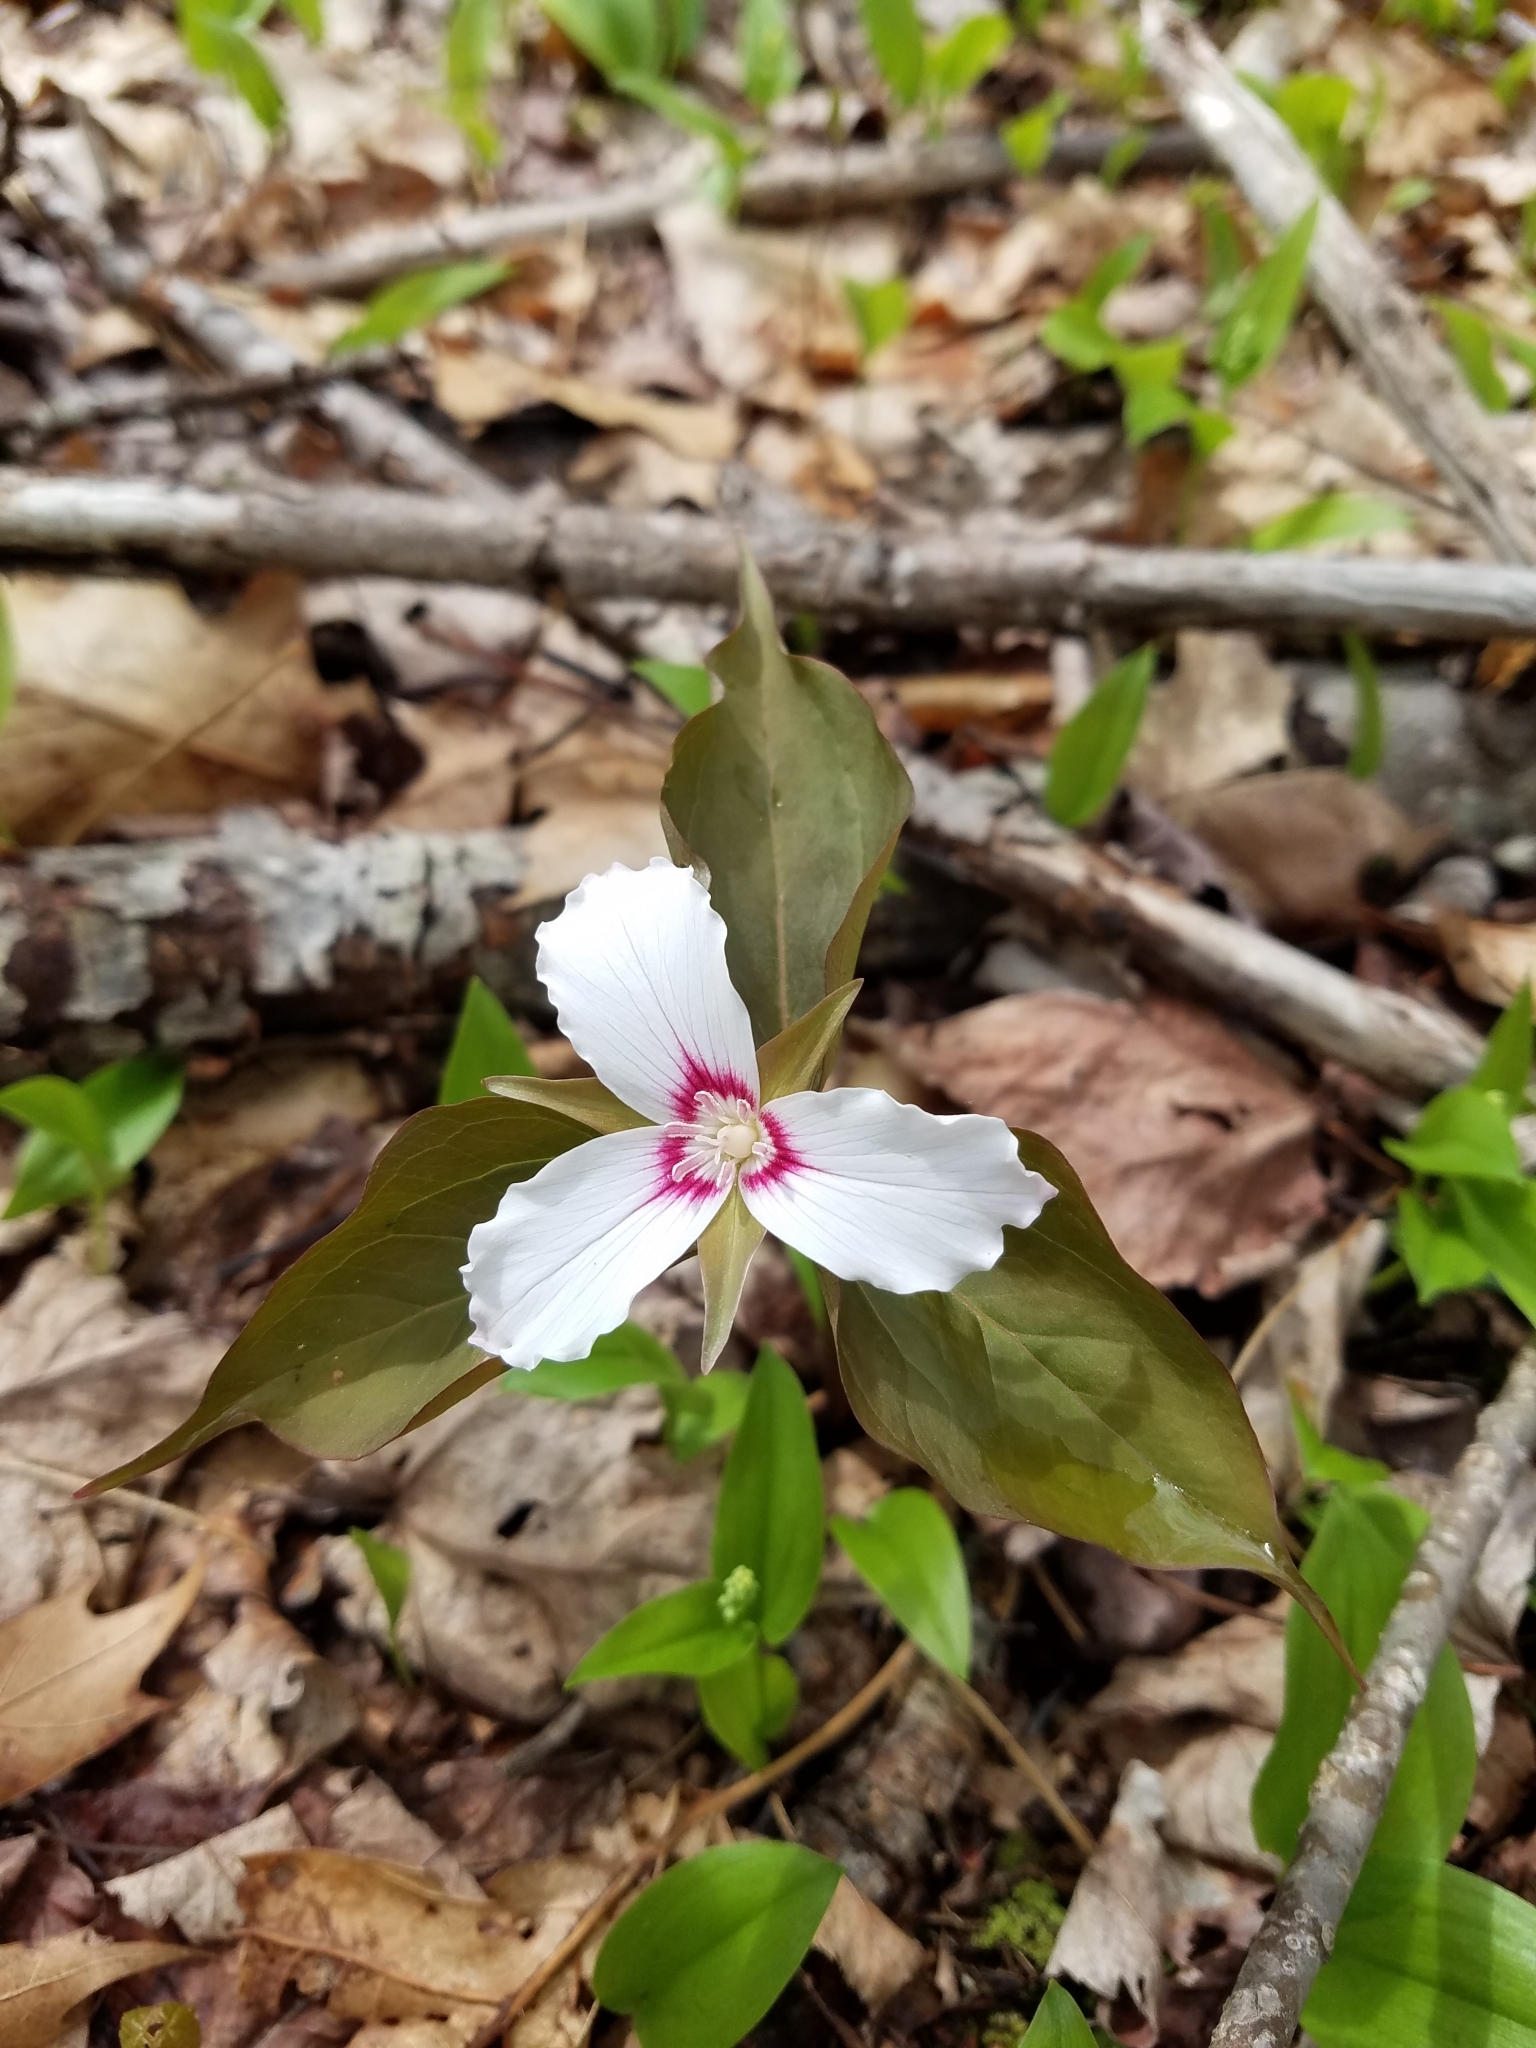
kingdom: Plantae
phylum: Tracheophyta
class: Liliopsida
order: Liliales
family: Melanthiaceae
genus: Trillium
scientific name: Trillium undulatum
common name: Paint trillium
